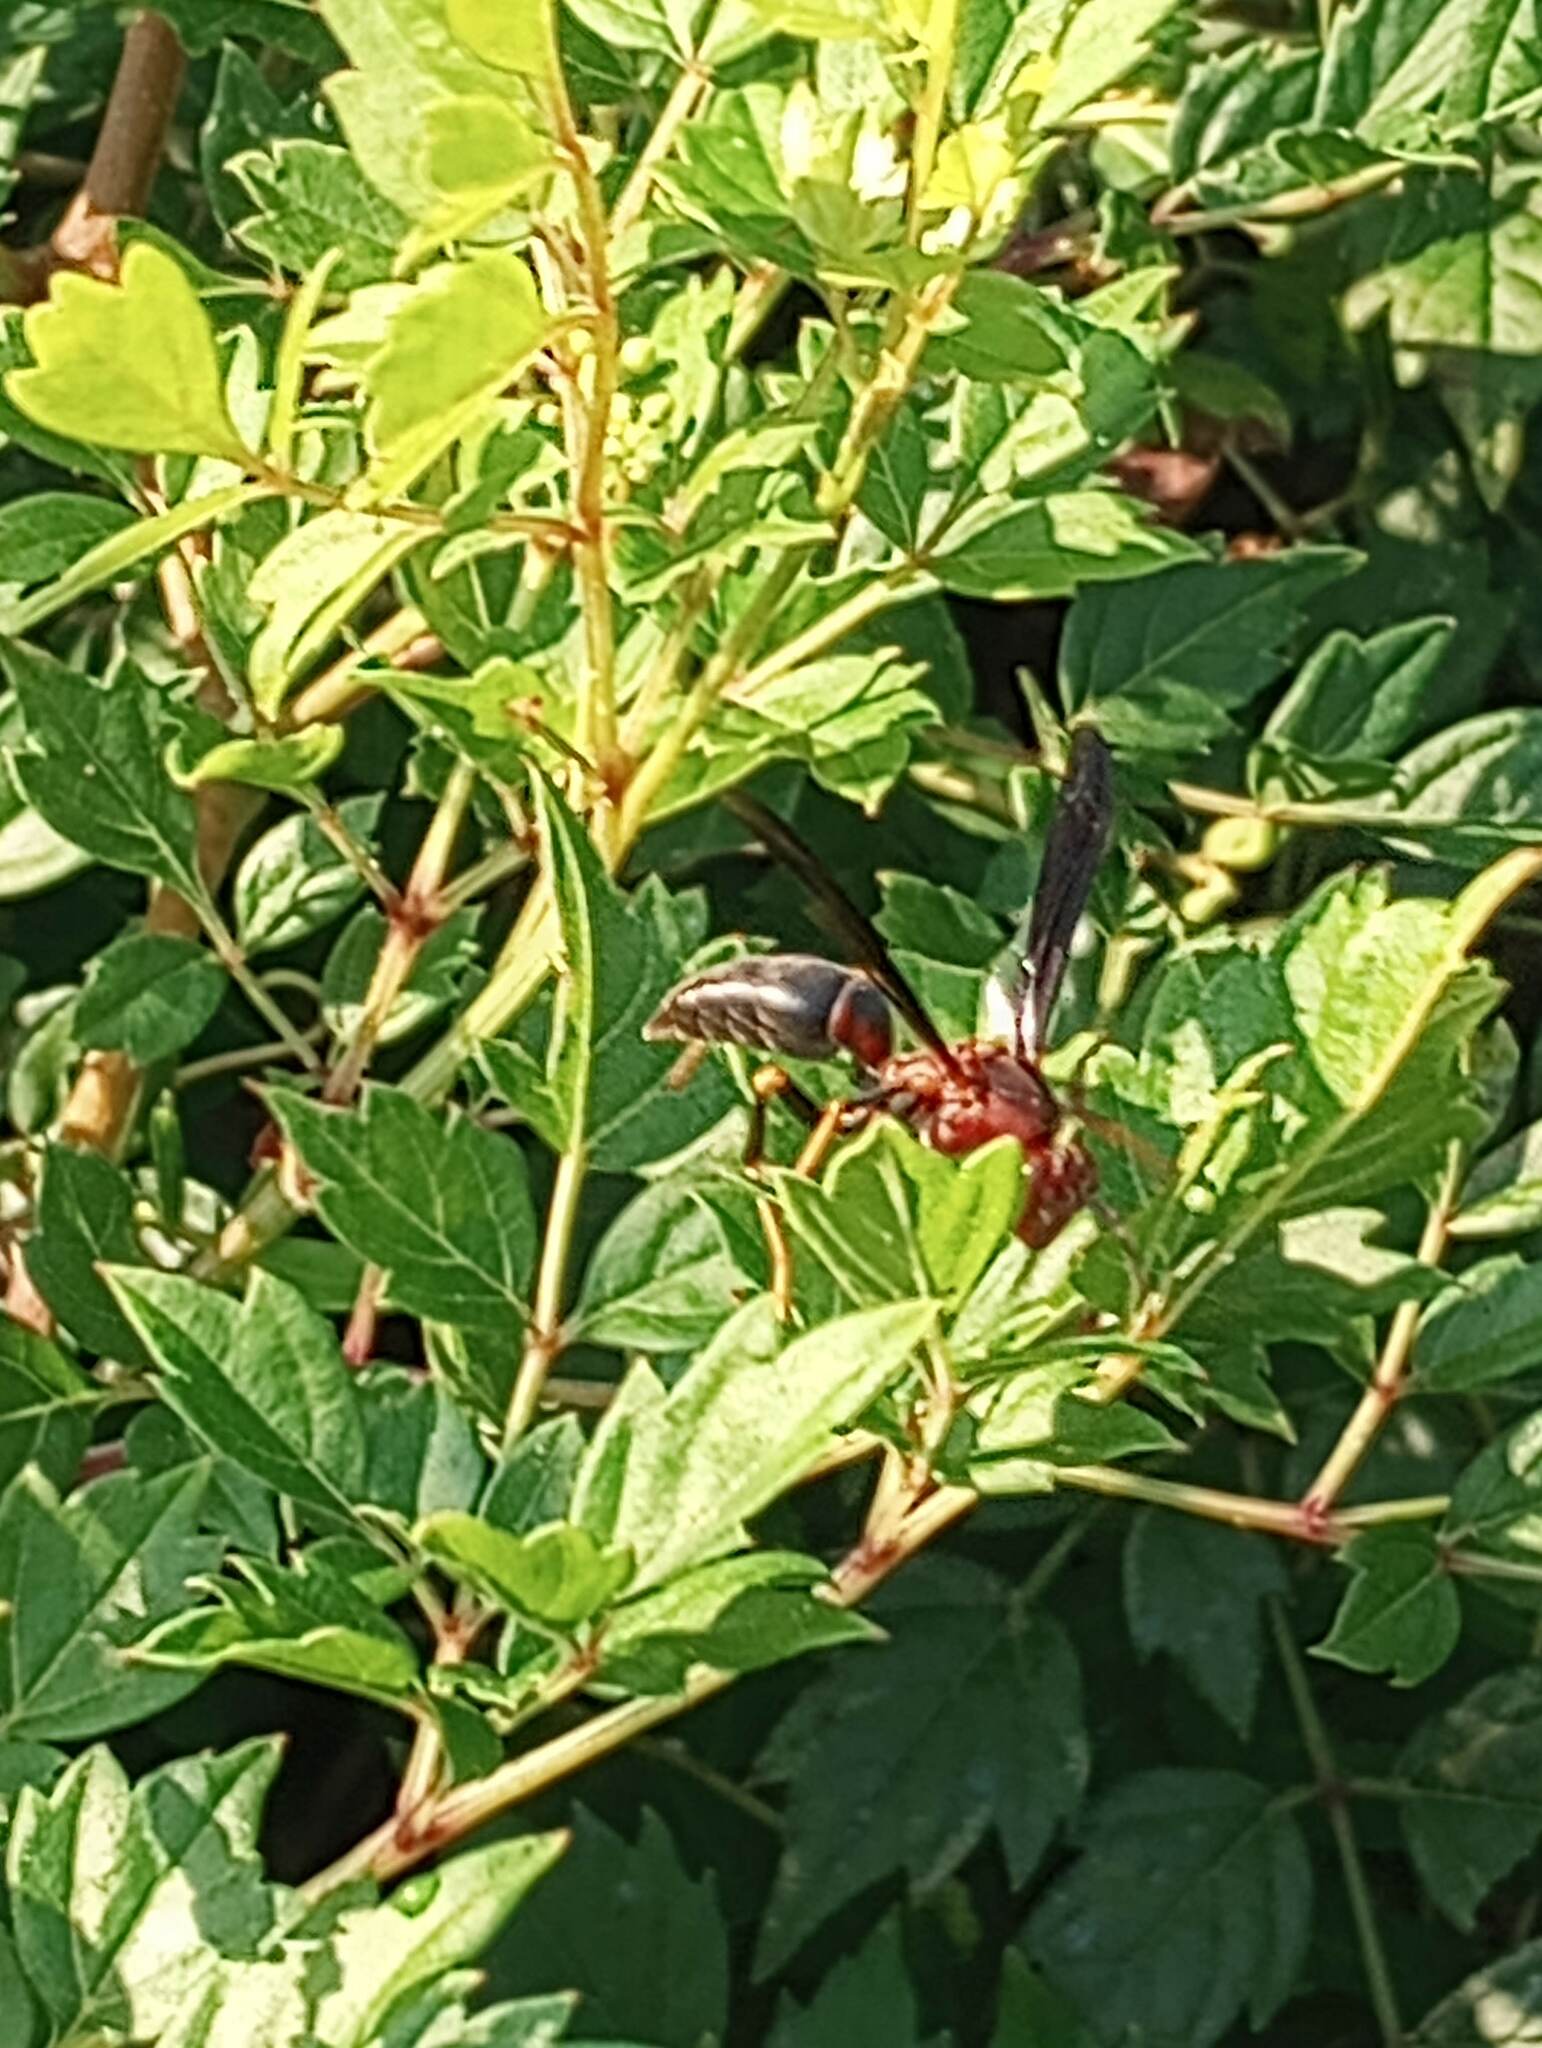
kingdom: Plantae
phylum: Tracheophyta
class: Magnoliopsida
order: Vitales
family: Vitaceae
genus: Nekemias
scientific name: Nekemias arborea
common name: Peppervine
